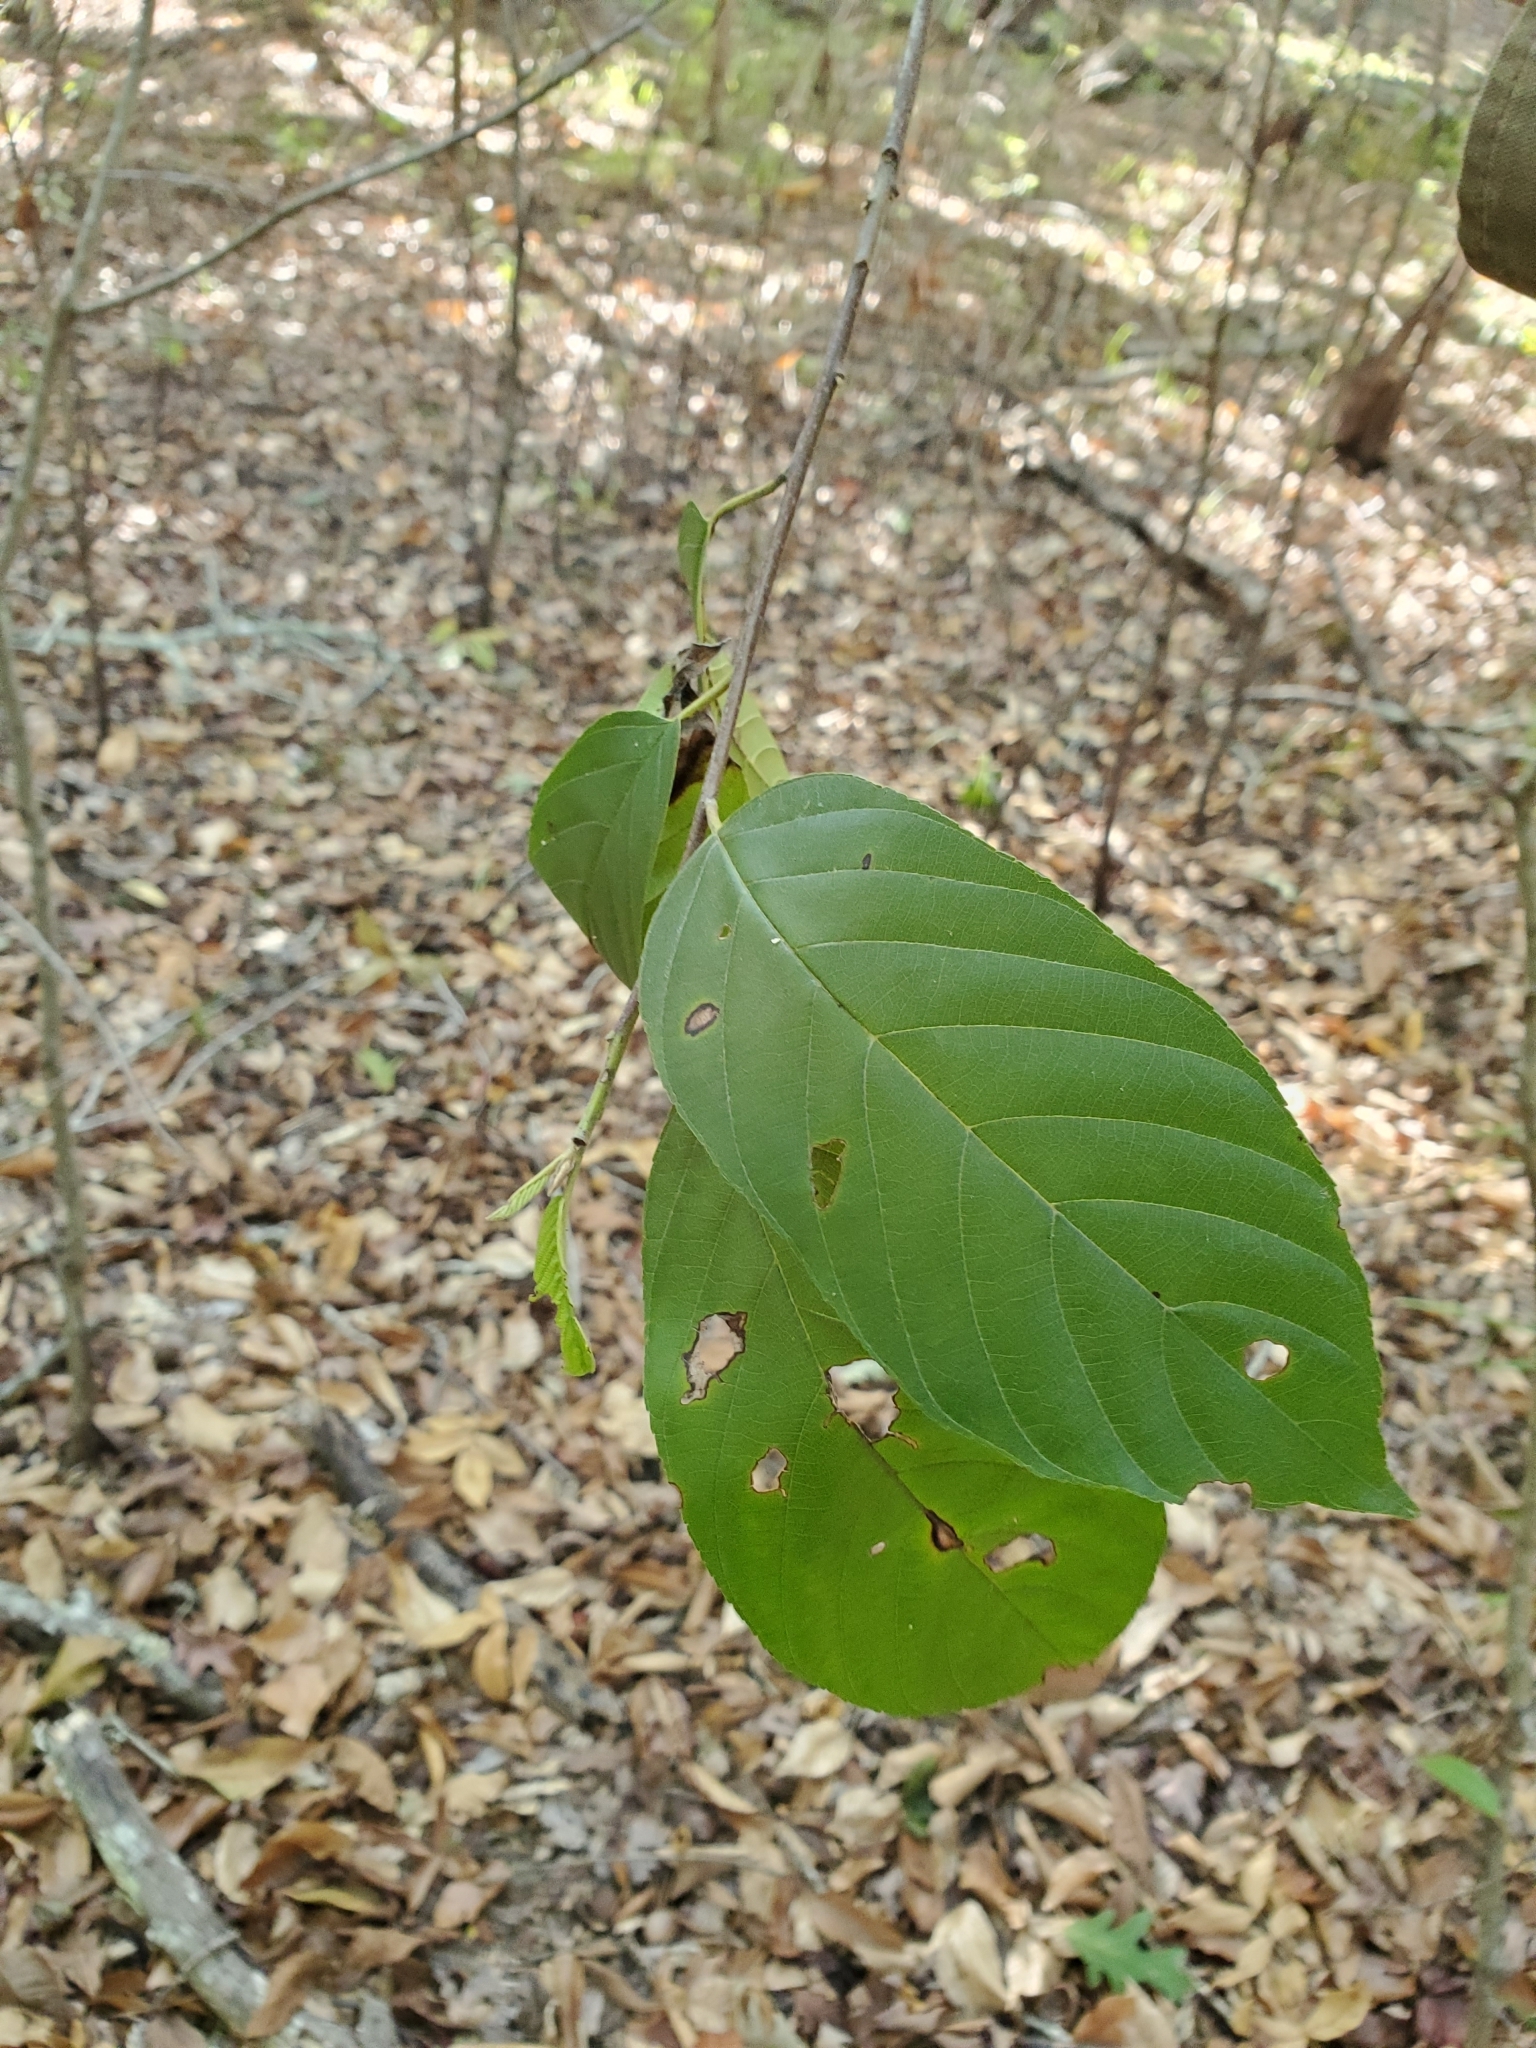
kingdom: Plantae
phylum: Tracheophyta
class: Magnoliopsida
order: Rosales
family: Rhamnaceae
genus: Frangula
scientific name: Frangula caroliniana
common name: Carolina buckthorn
